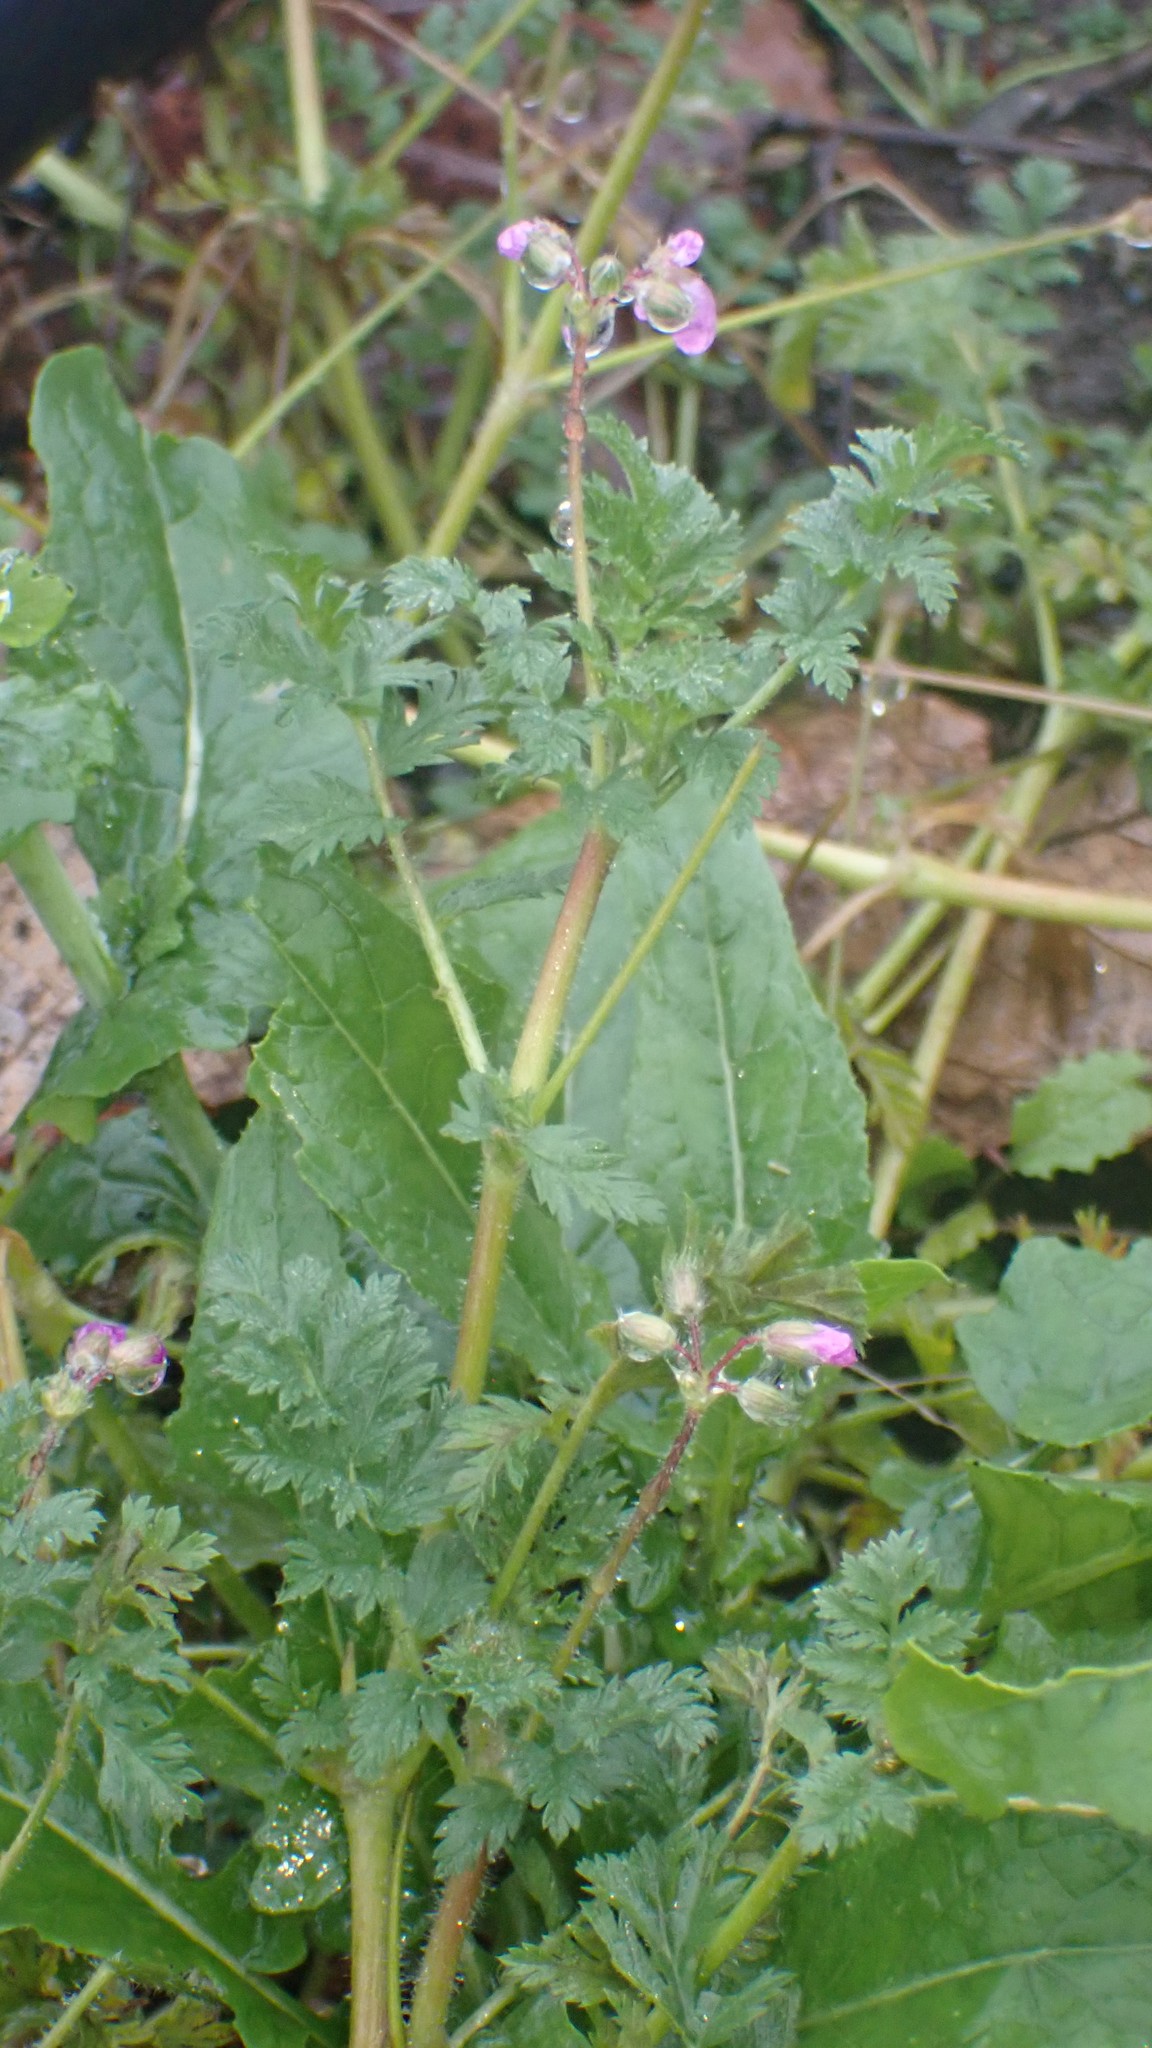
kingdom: Plantae
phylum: Tracheophyta
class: Magnoliopsida
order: Geraniales
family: Geraniaceae
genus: Erodium
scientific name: Erodium cicutarium
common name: Common stork's-bill
